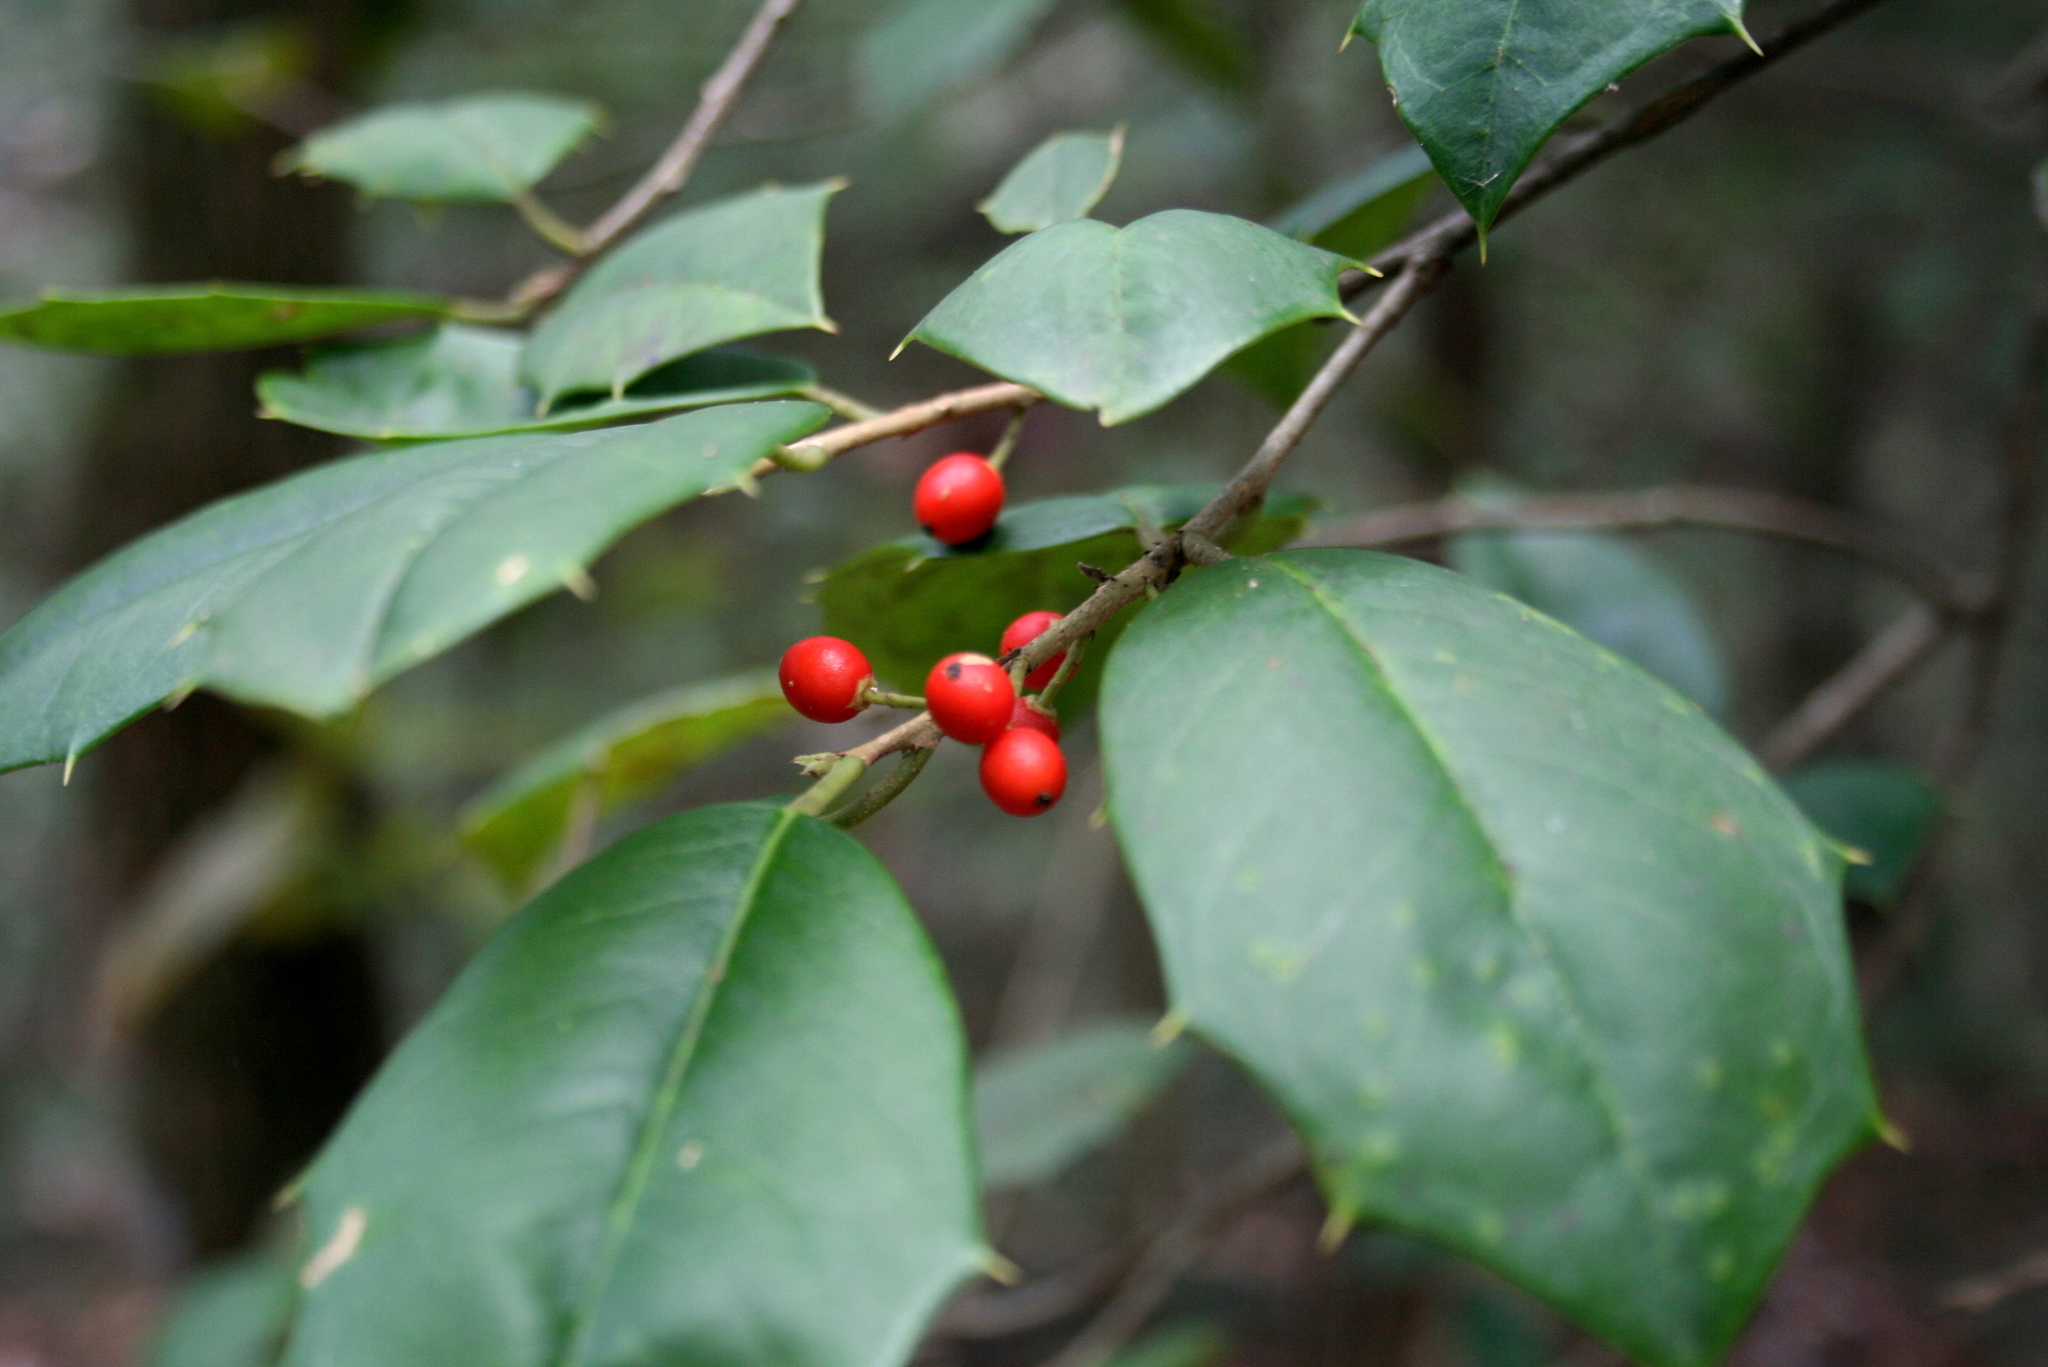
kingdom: Plantae
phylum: Tracheophyta
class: Magnoliopsida
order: Aquifoliales
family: Aquifoliaceae
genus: Ilex
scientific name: Ilex opaca
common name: American holly
